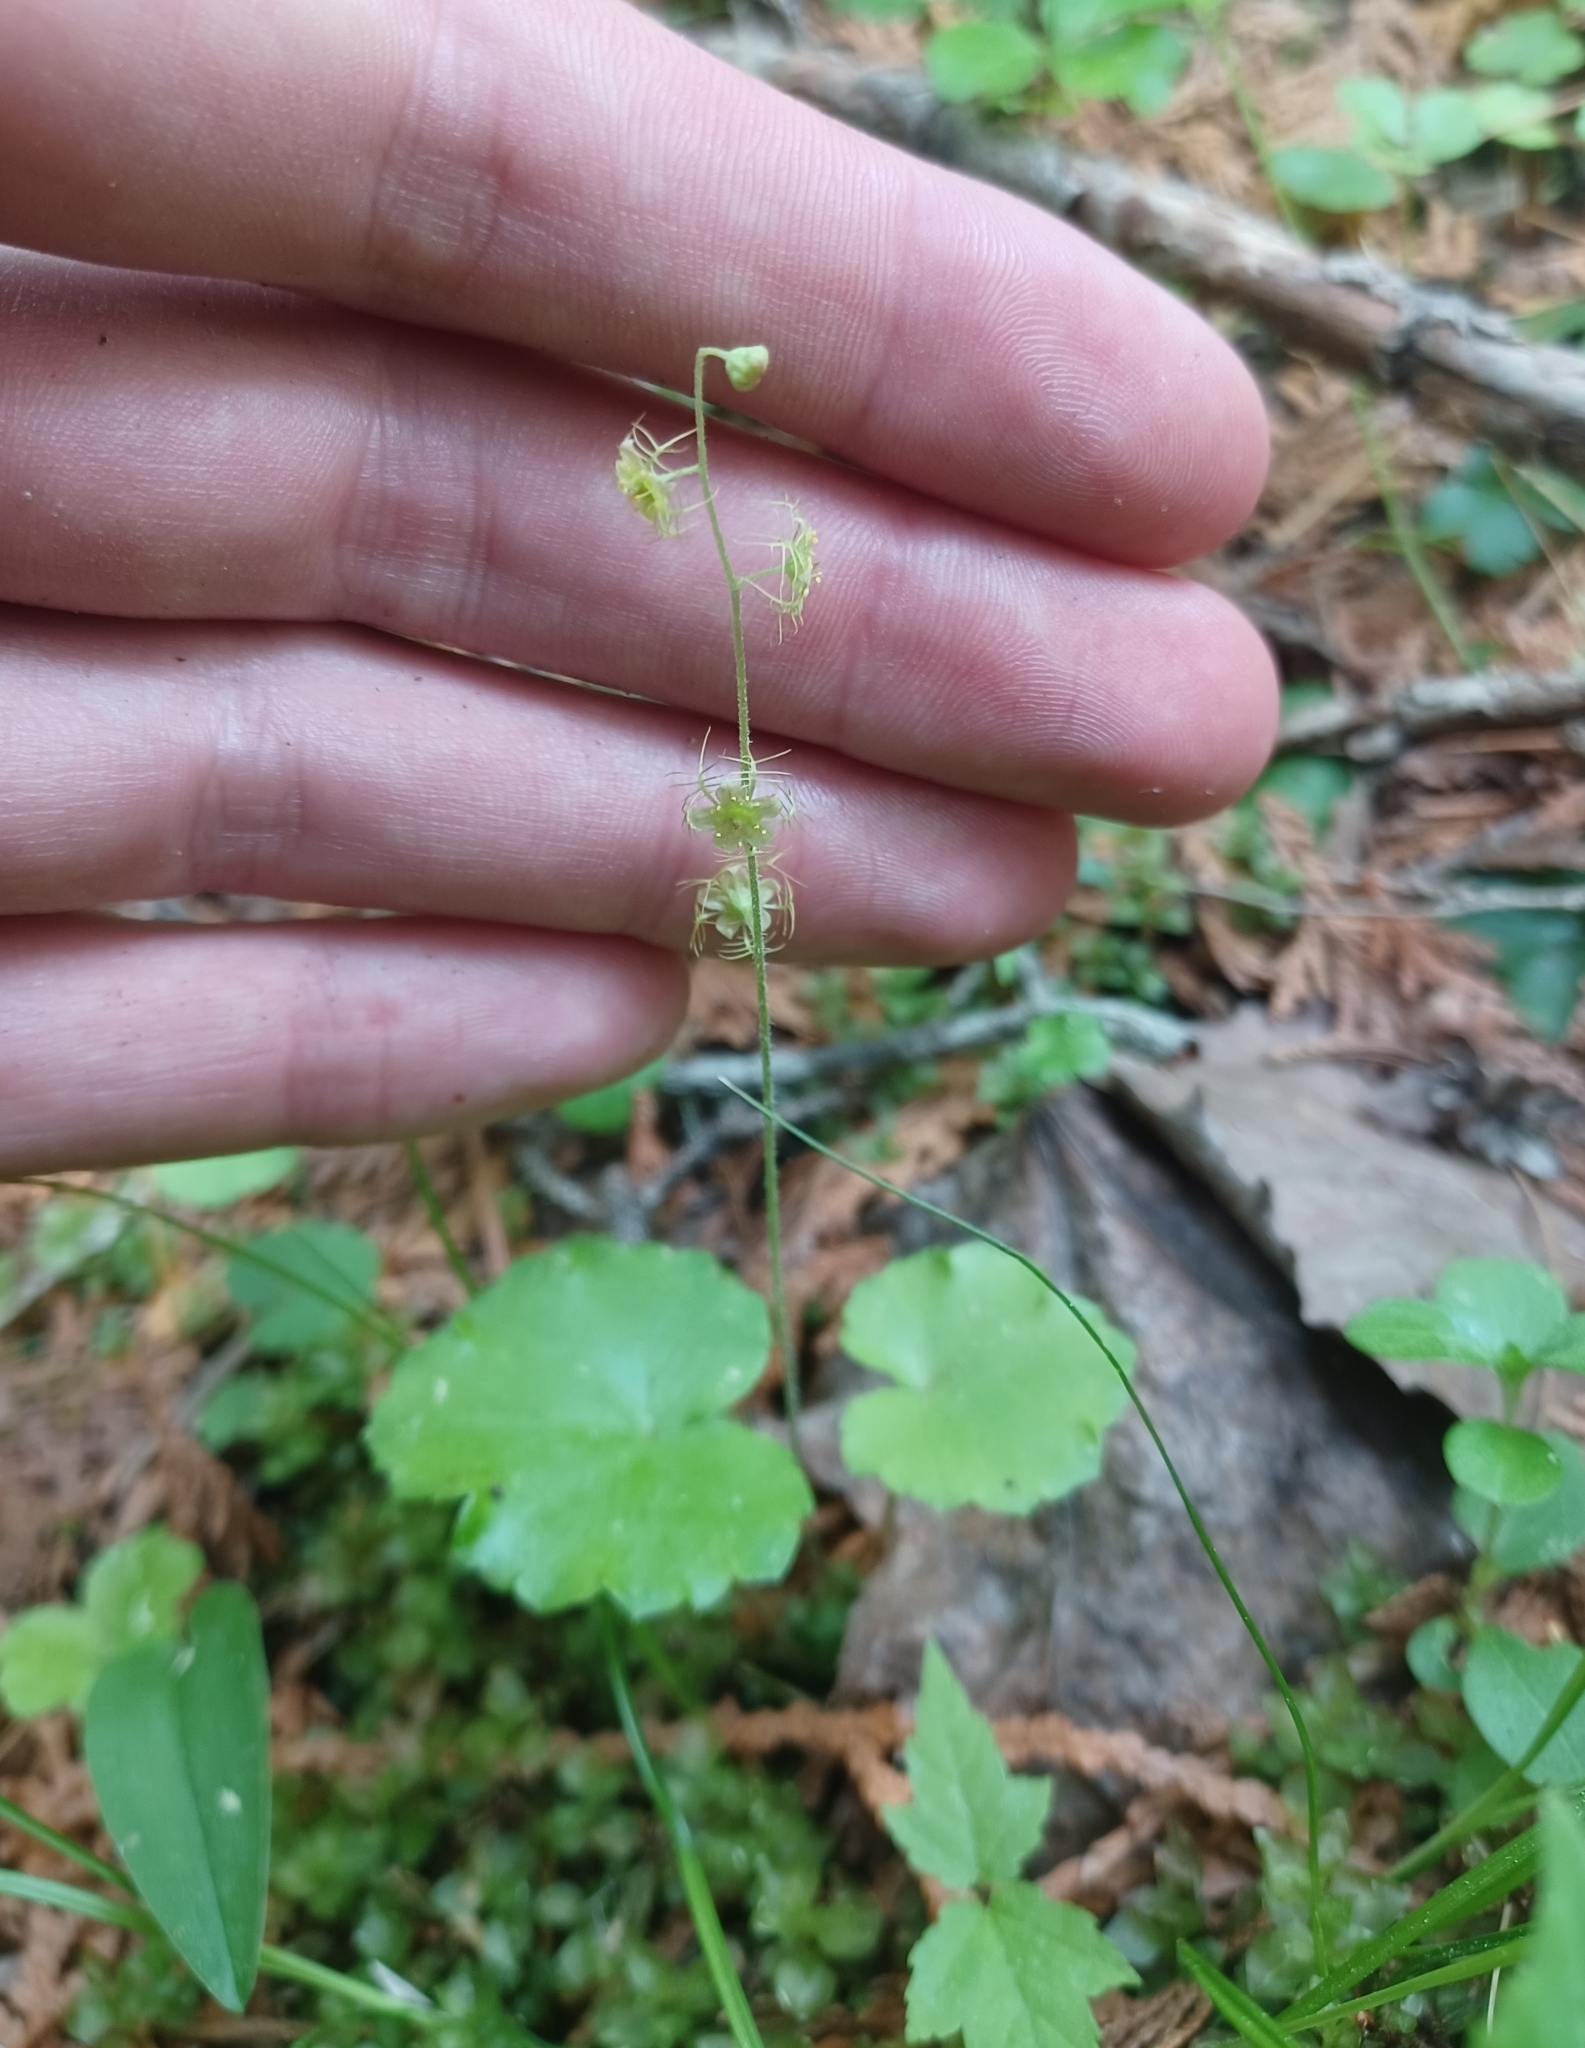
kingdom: Plantae
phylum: Tracheophyta
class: Magnoliopsida
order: Saxifragales
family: Saxifragaceae
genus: Mitella
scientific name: Mitella nuda
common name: Bare-stemmed bishop's-cap
